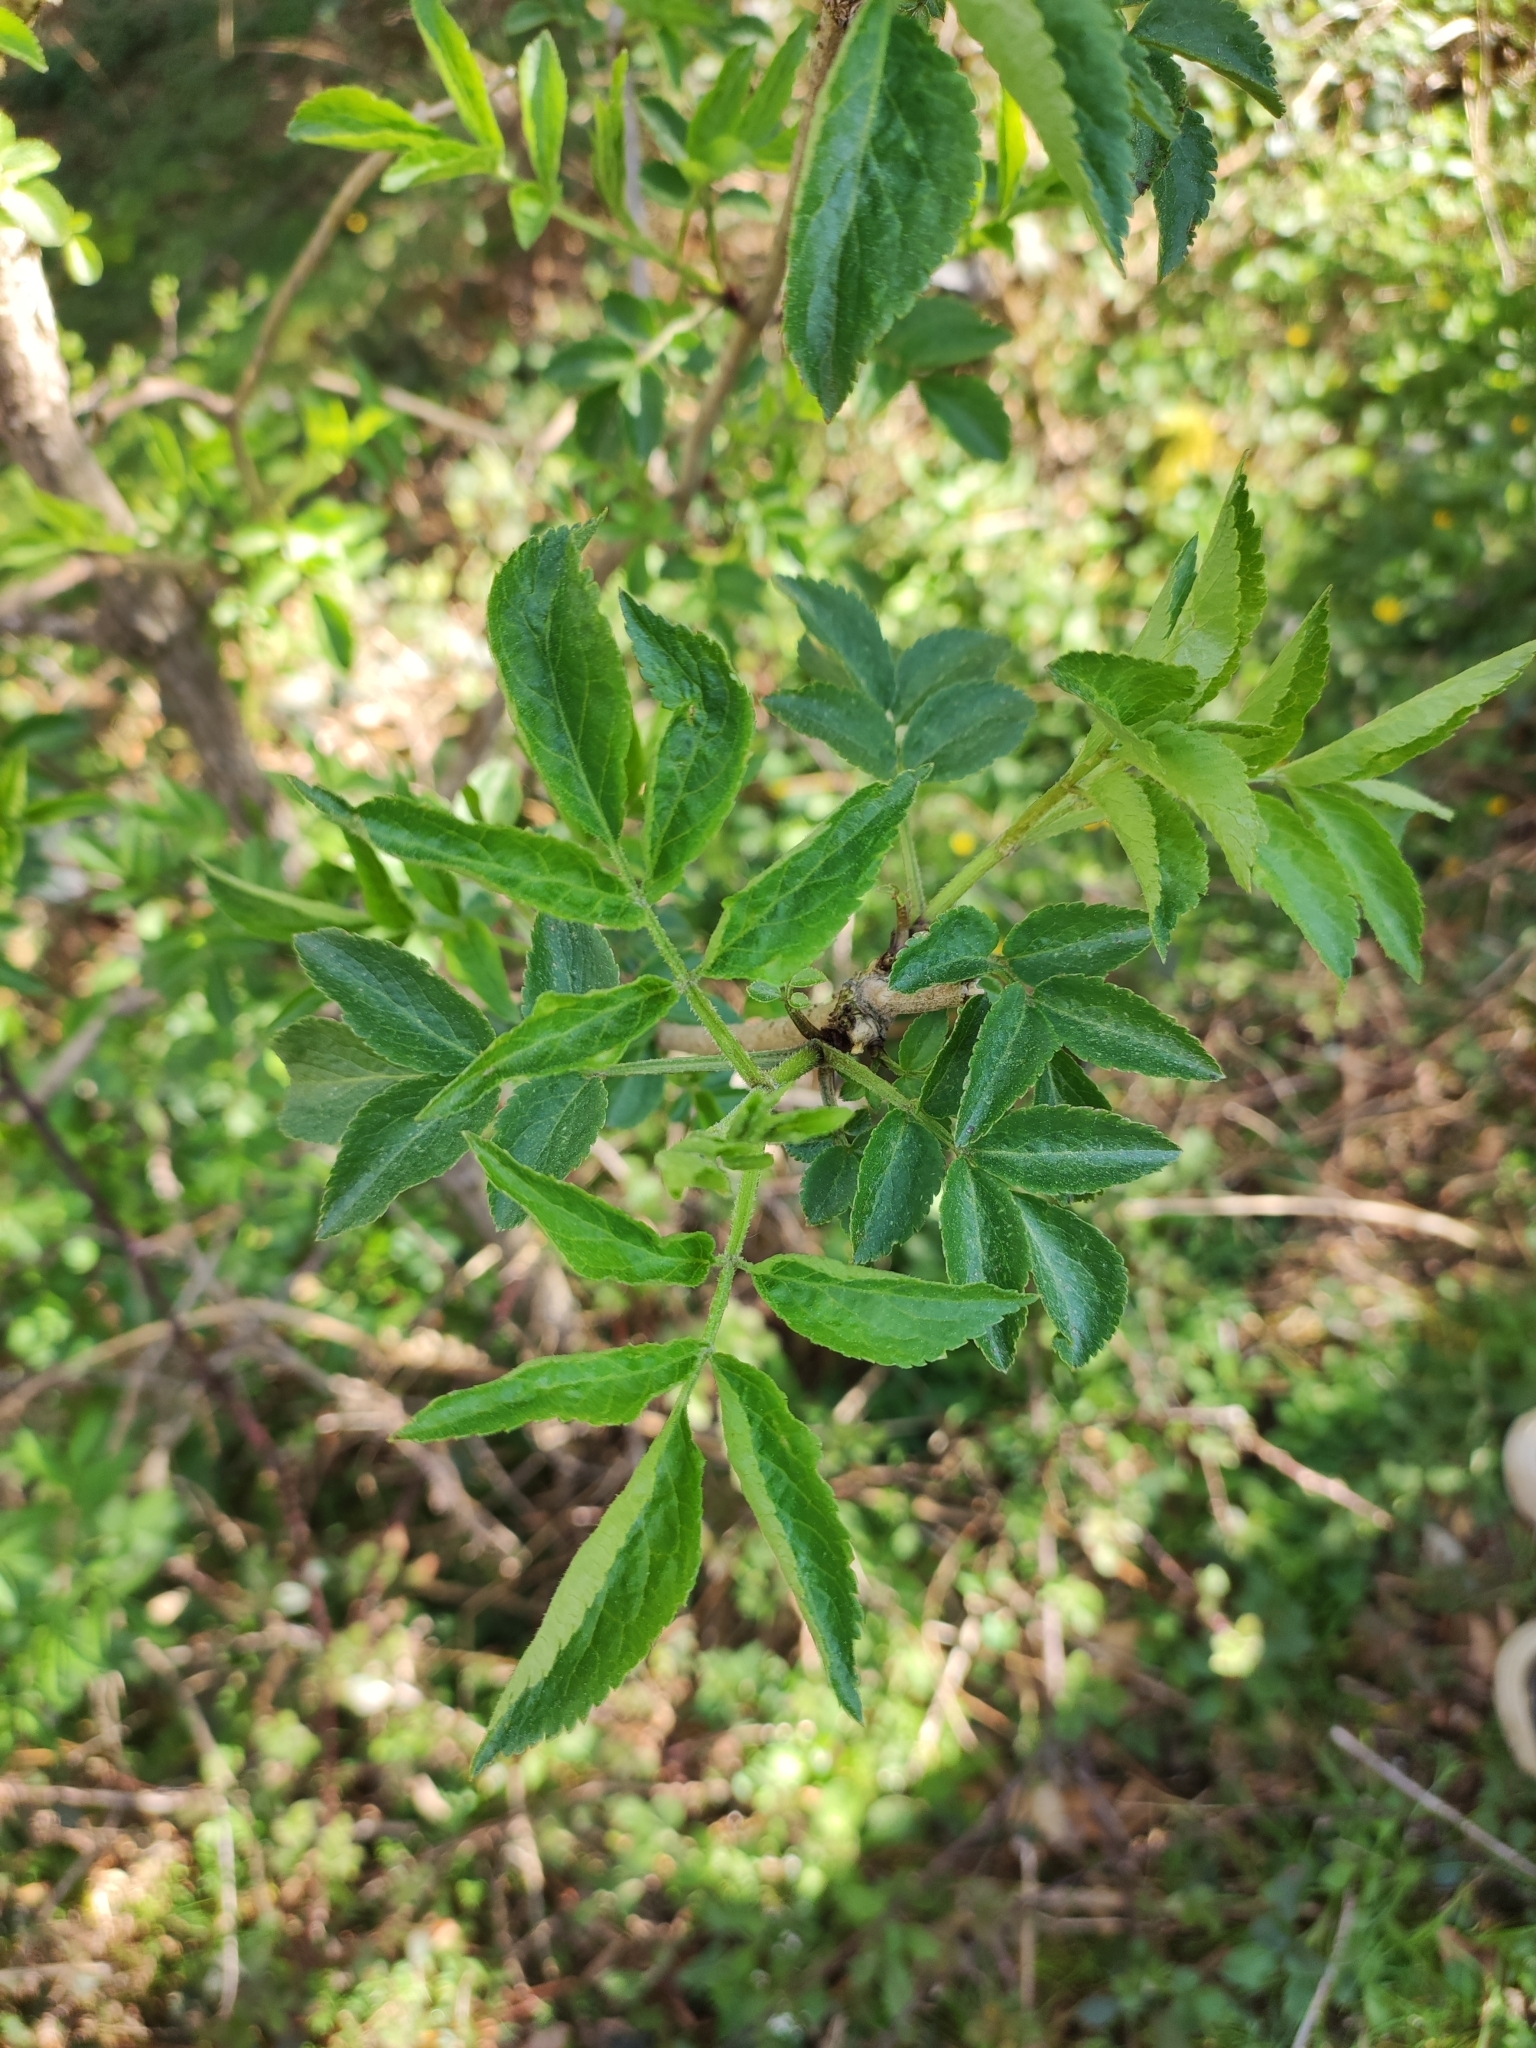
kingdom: Plantae
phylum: Tracheophyta
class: Magnoliopsida
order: Dipsacales
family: Viburnaceae
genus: Sambucus
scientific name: Sambucus nigra
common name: Elder
